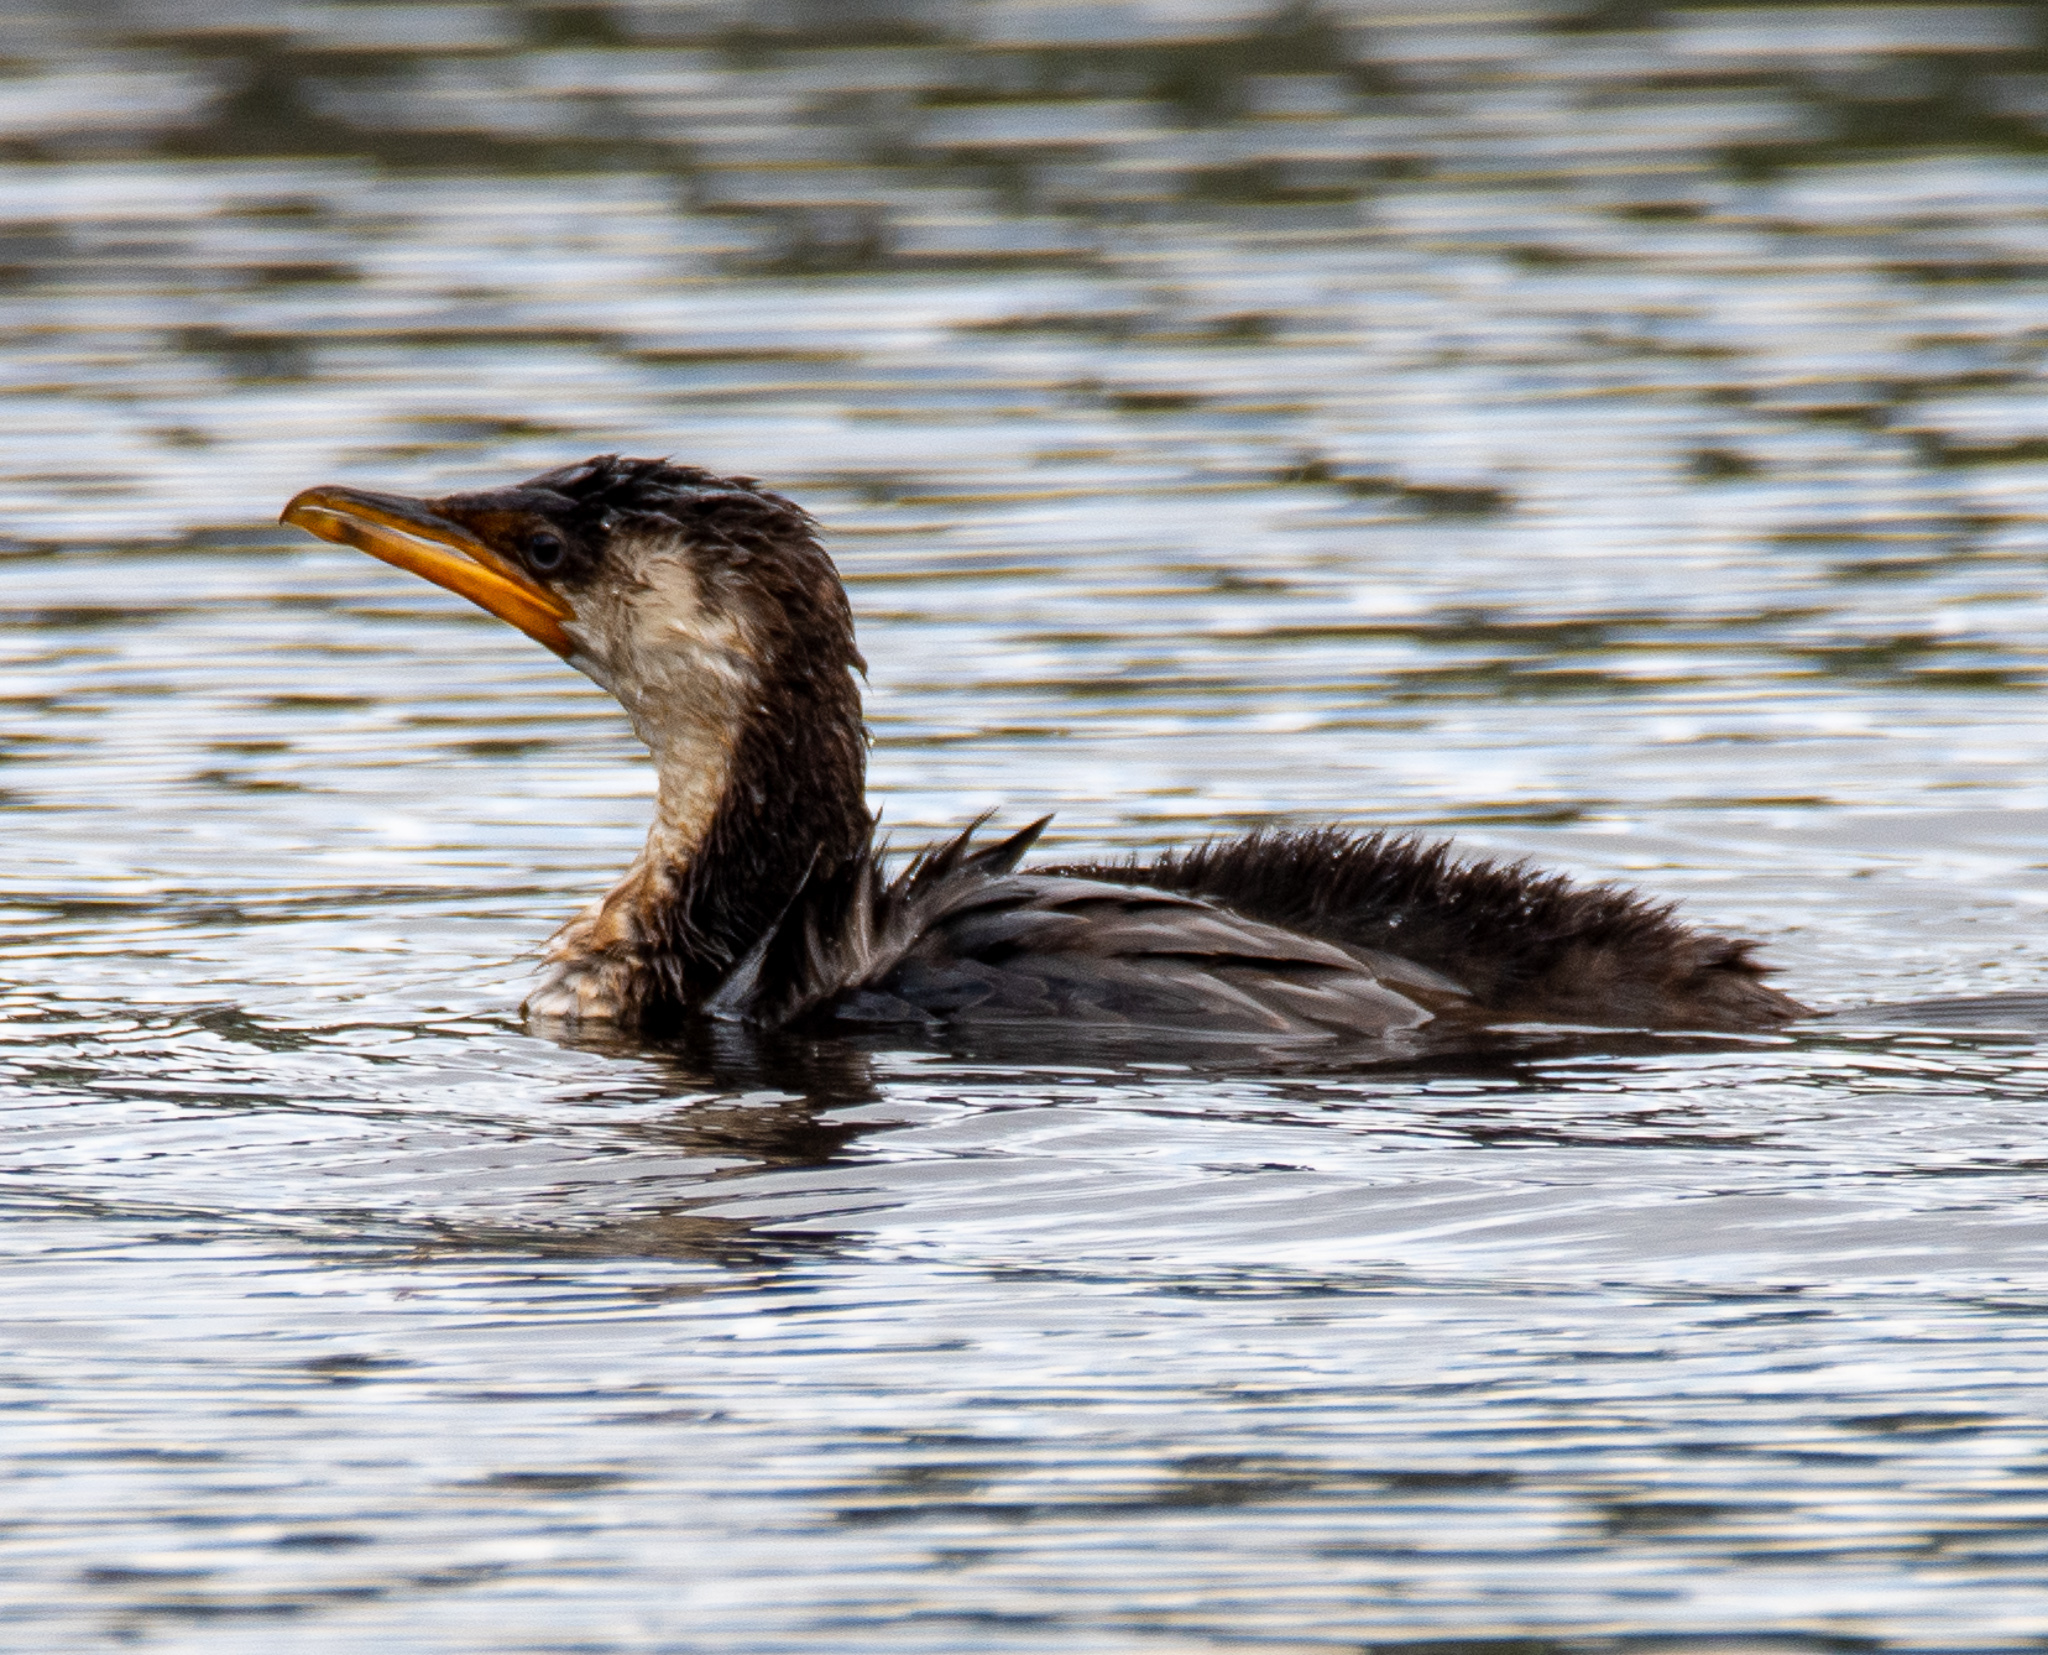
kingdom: Animalia
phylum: Chordata
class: Aves
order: Suliformes
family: Phalacrocoracidae
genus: Microcarbo
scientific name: Microcarbo melanoleucos
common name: Little pied cormorant
